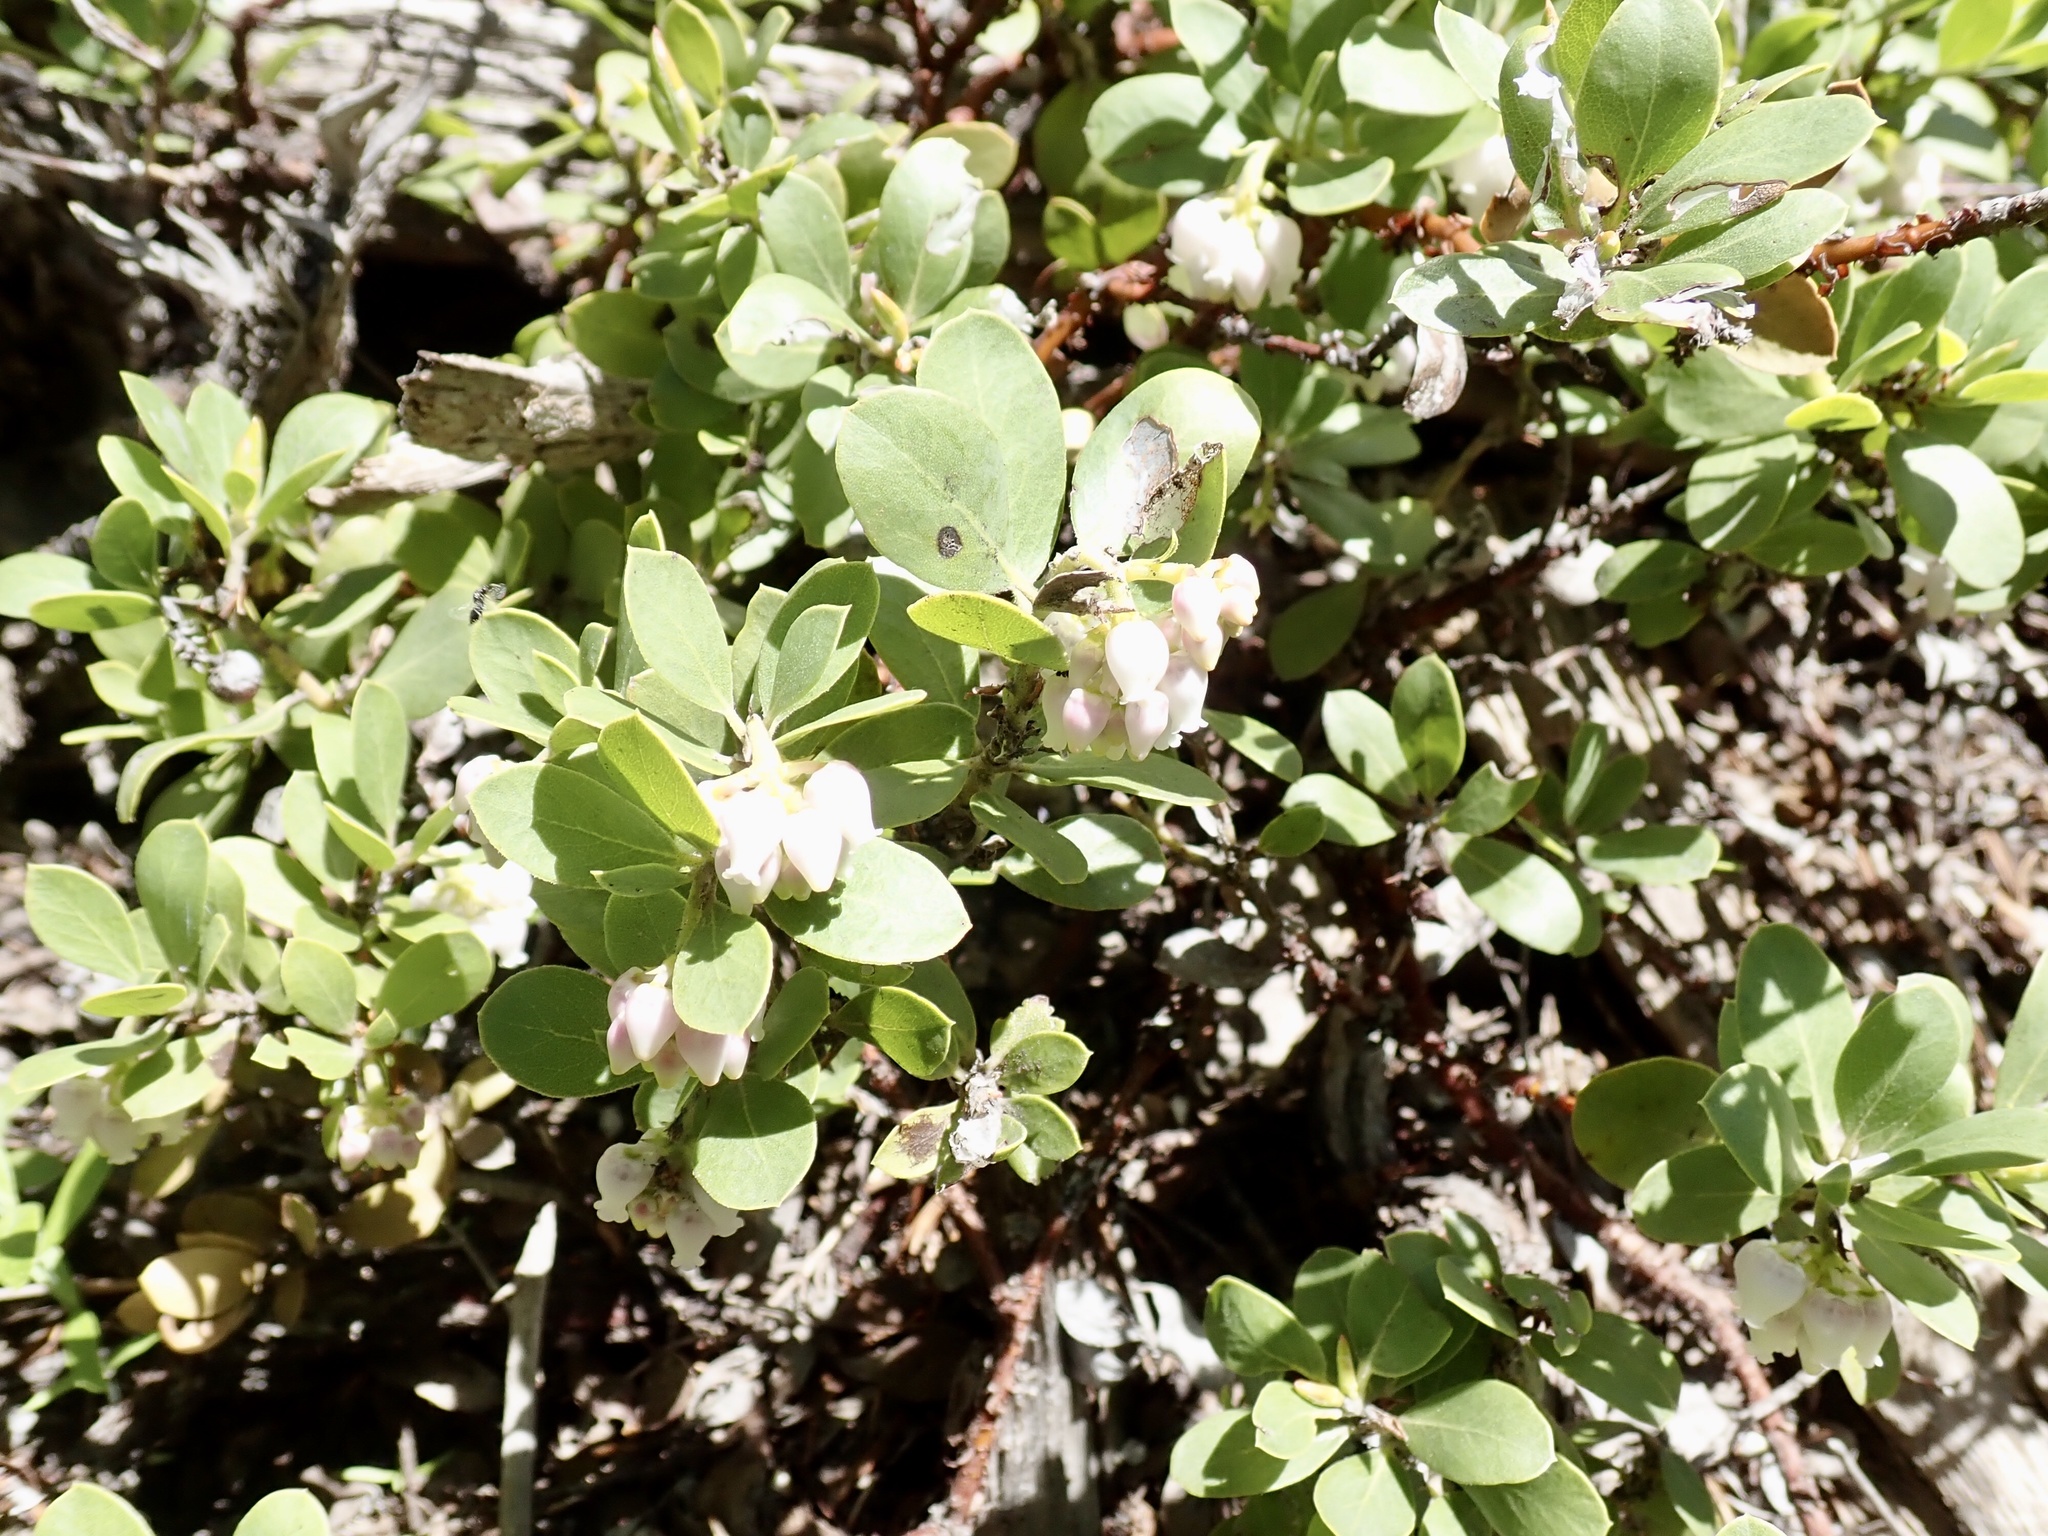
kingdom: Plantae
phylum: Tracheophyta
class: Magnoliopsida
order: Ericales
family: Ericaceae
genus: Arctostaphylos
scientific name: Arctostaphylos nevadensis
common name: Pinemat manzanita
